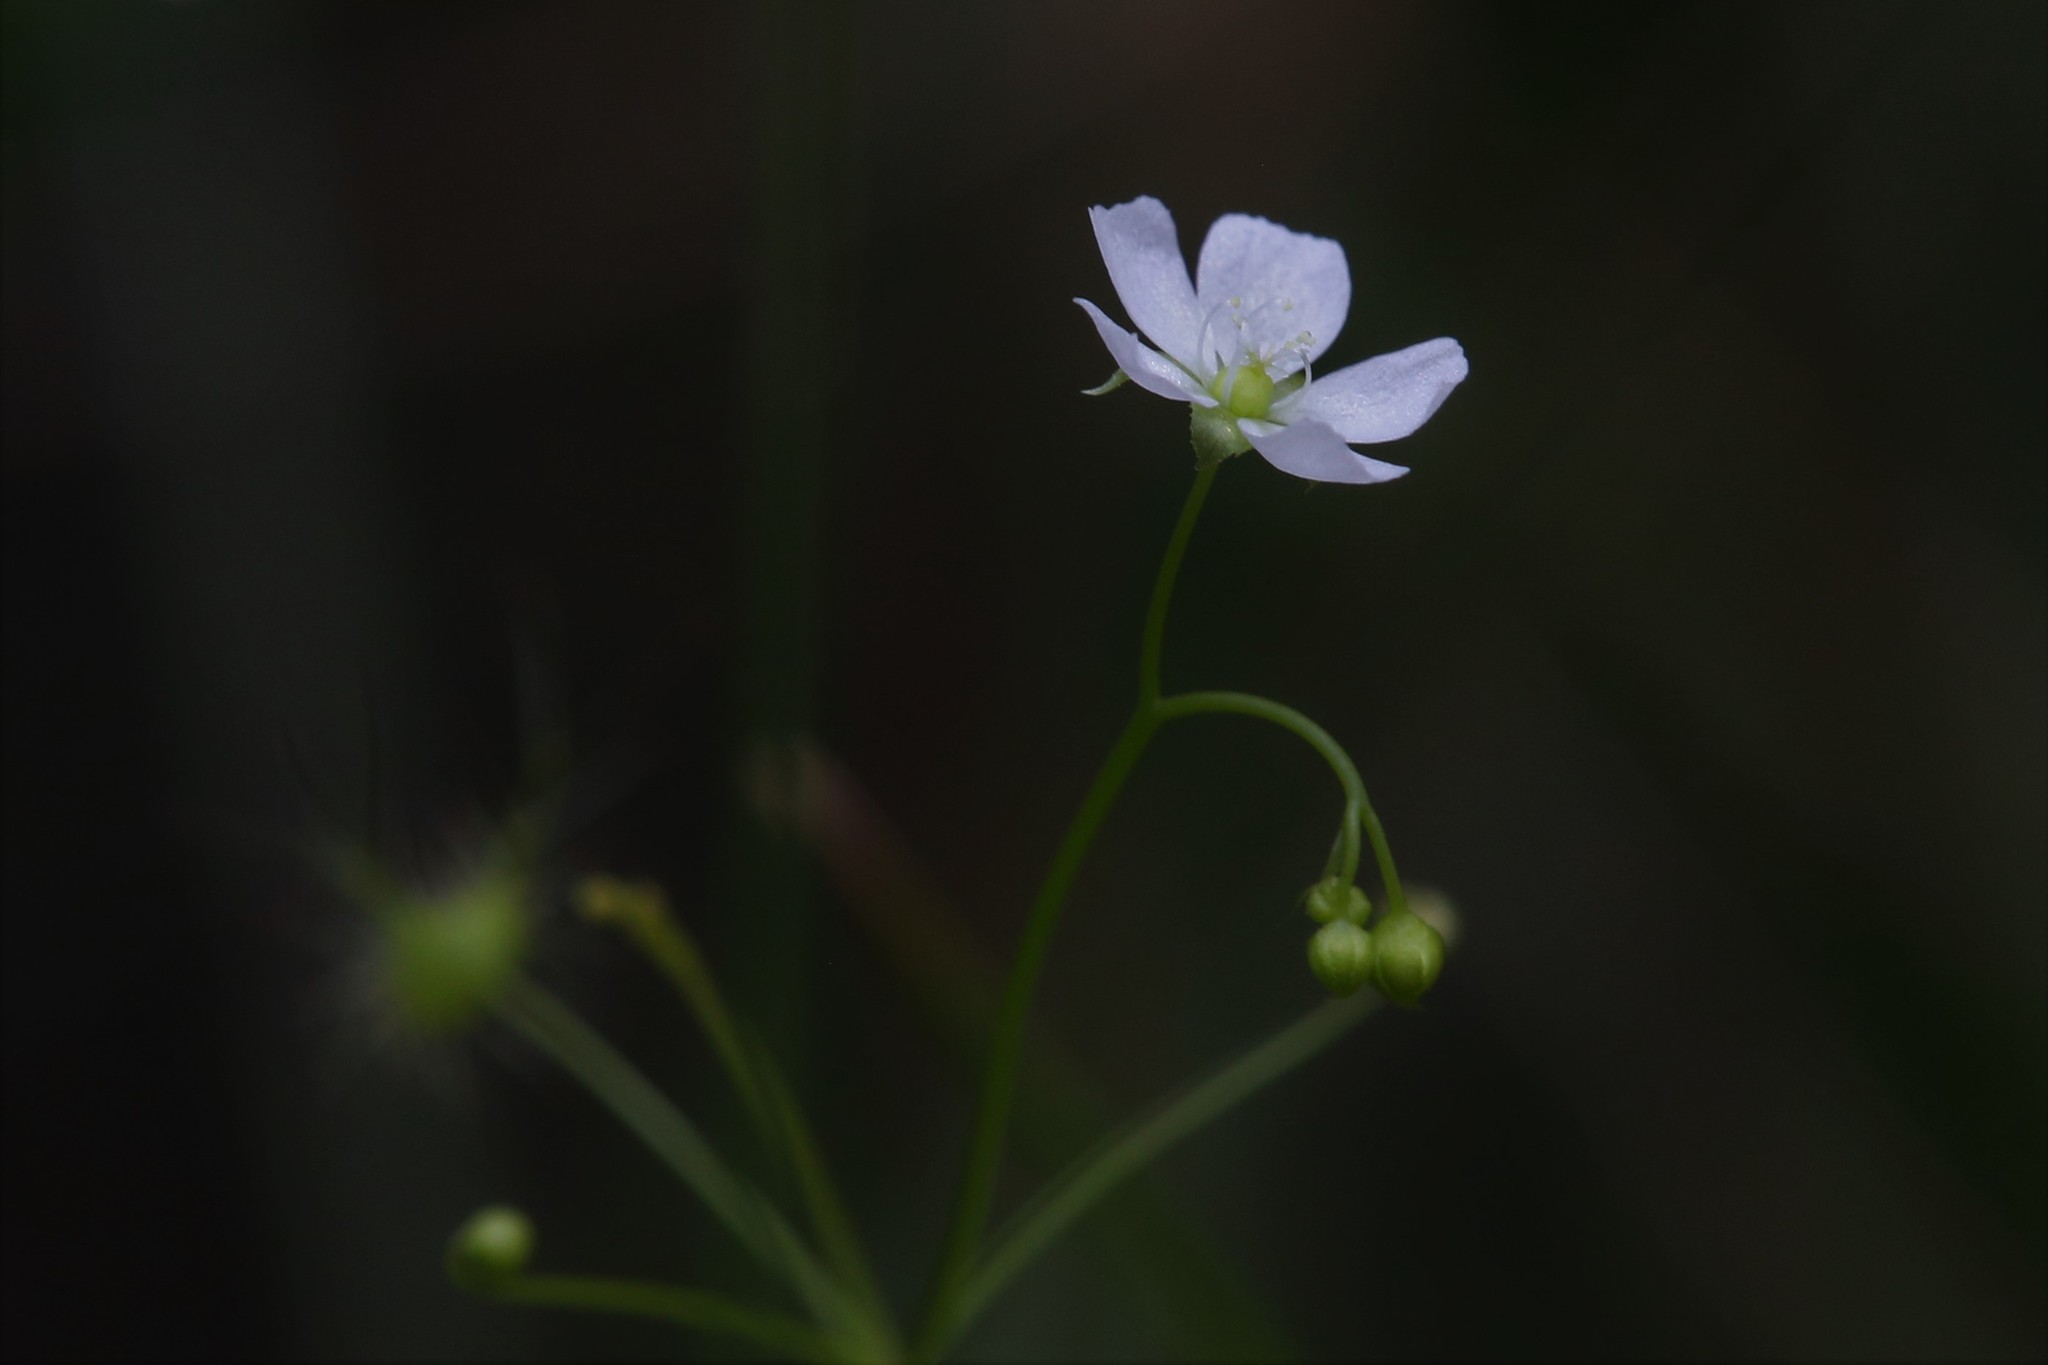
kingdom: Plantae
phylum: Tracheophyta
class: Magnoliopsida
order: Caryophyllales
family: Droseraceae
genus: Drosera
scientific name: Drosera peltata
